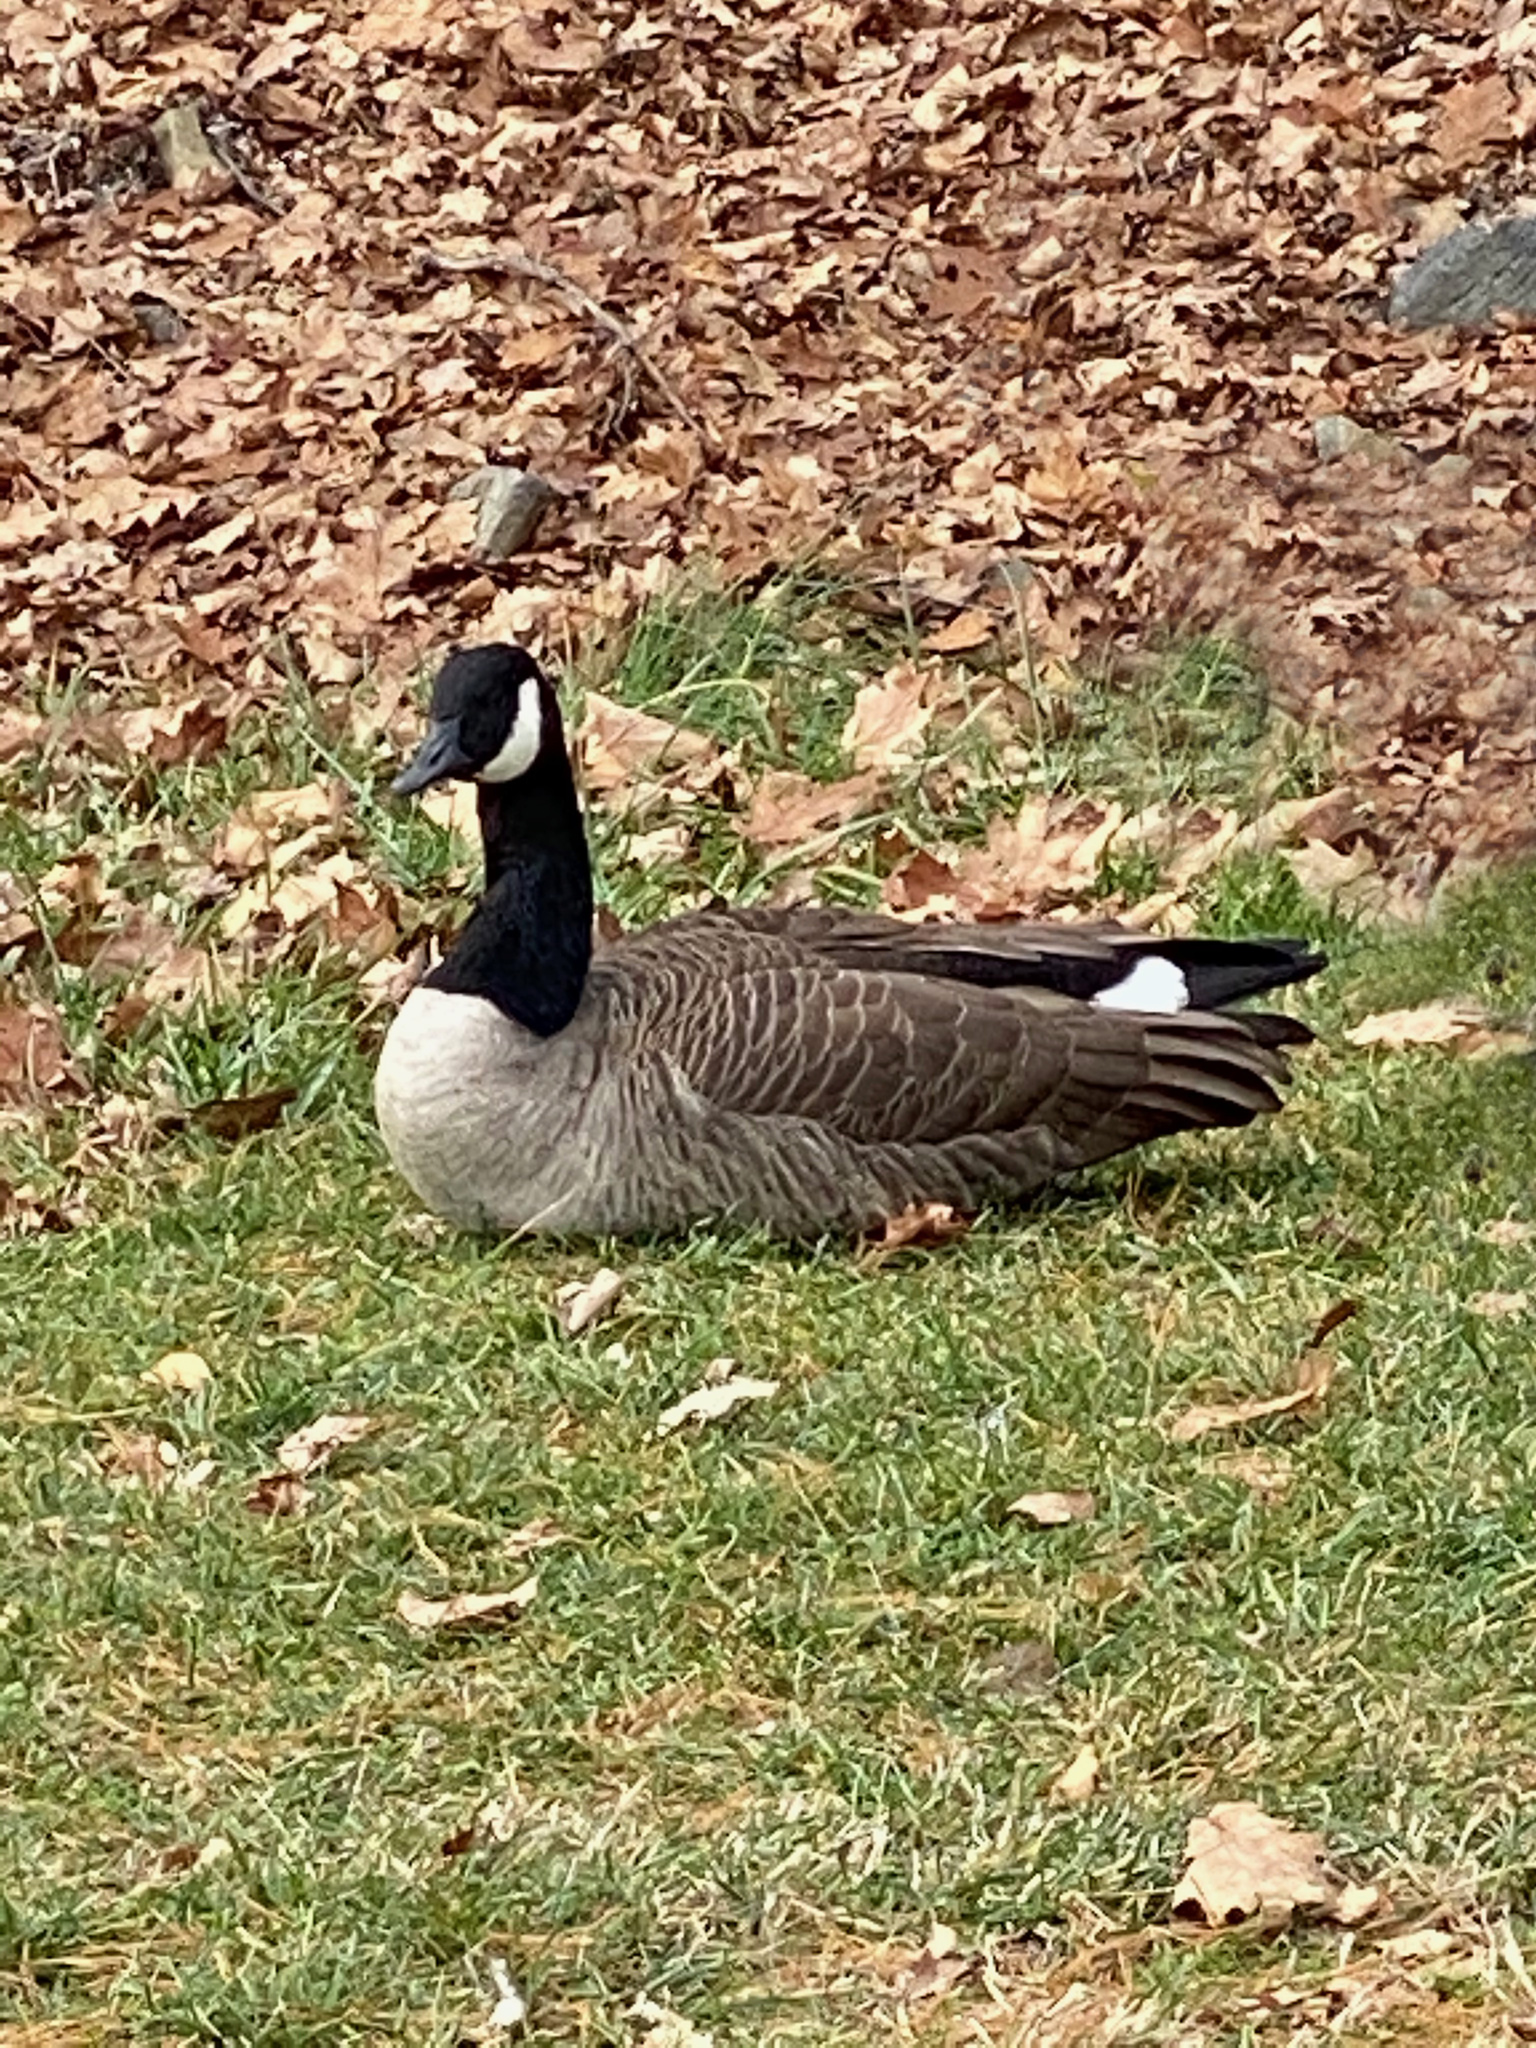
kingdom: Animalia
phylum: Chordata
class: Aves
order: Anseriformes
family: Anatidae
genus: Branta
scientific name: Branta canadensis
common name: Canada goose
